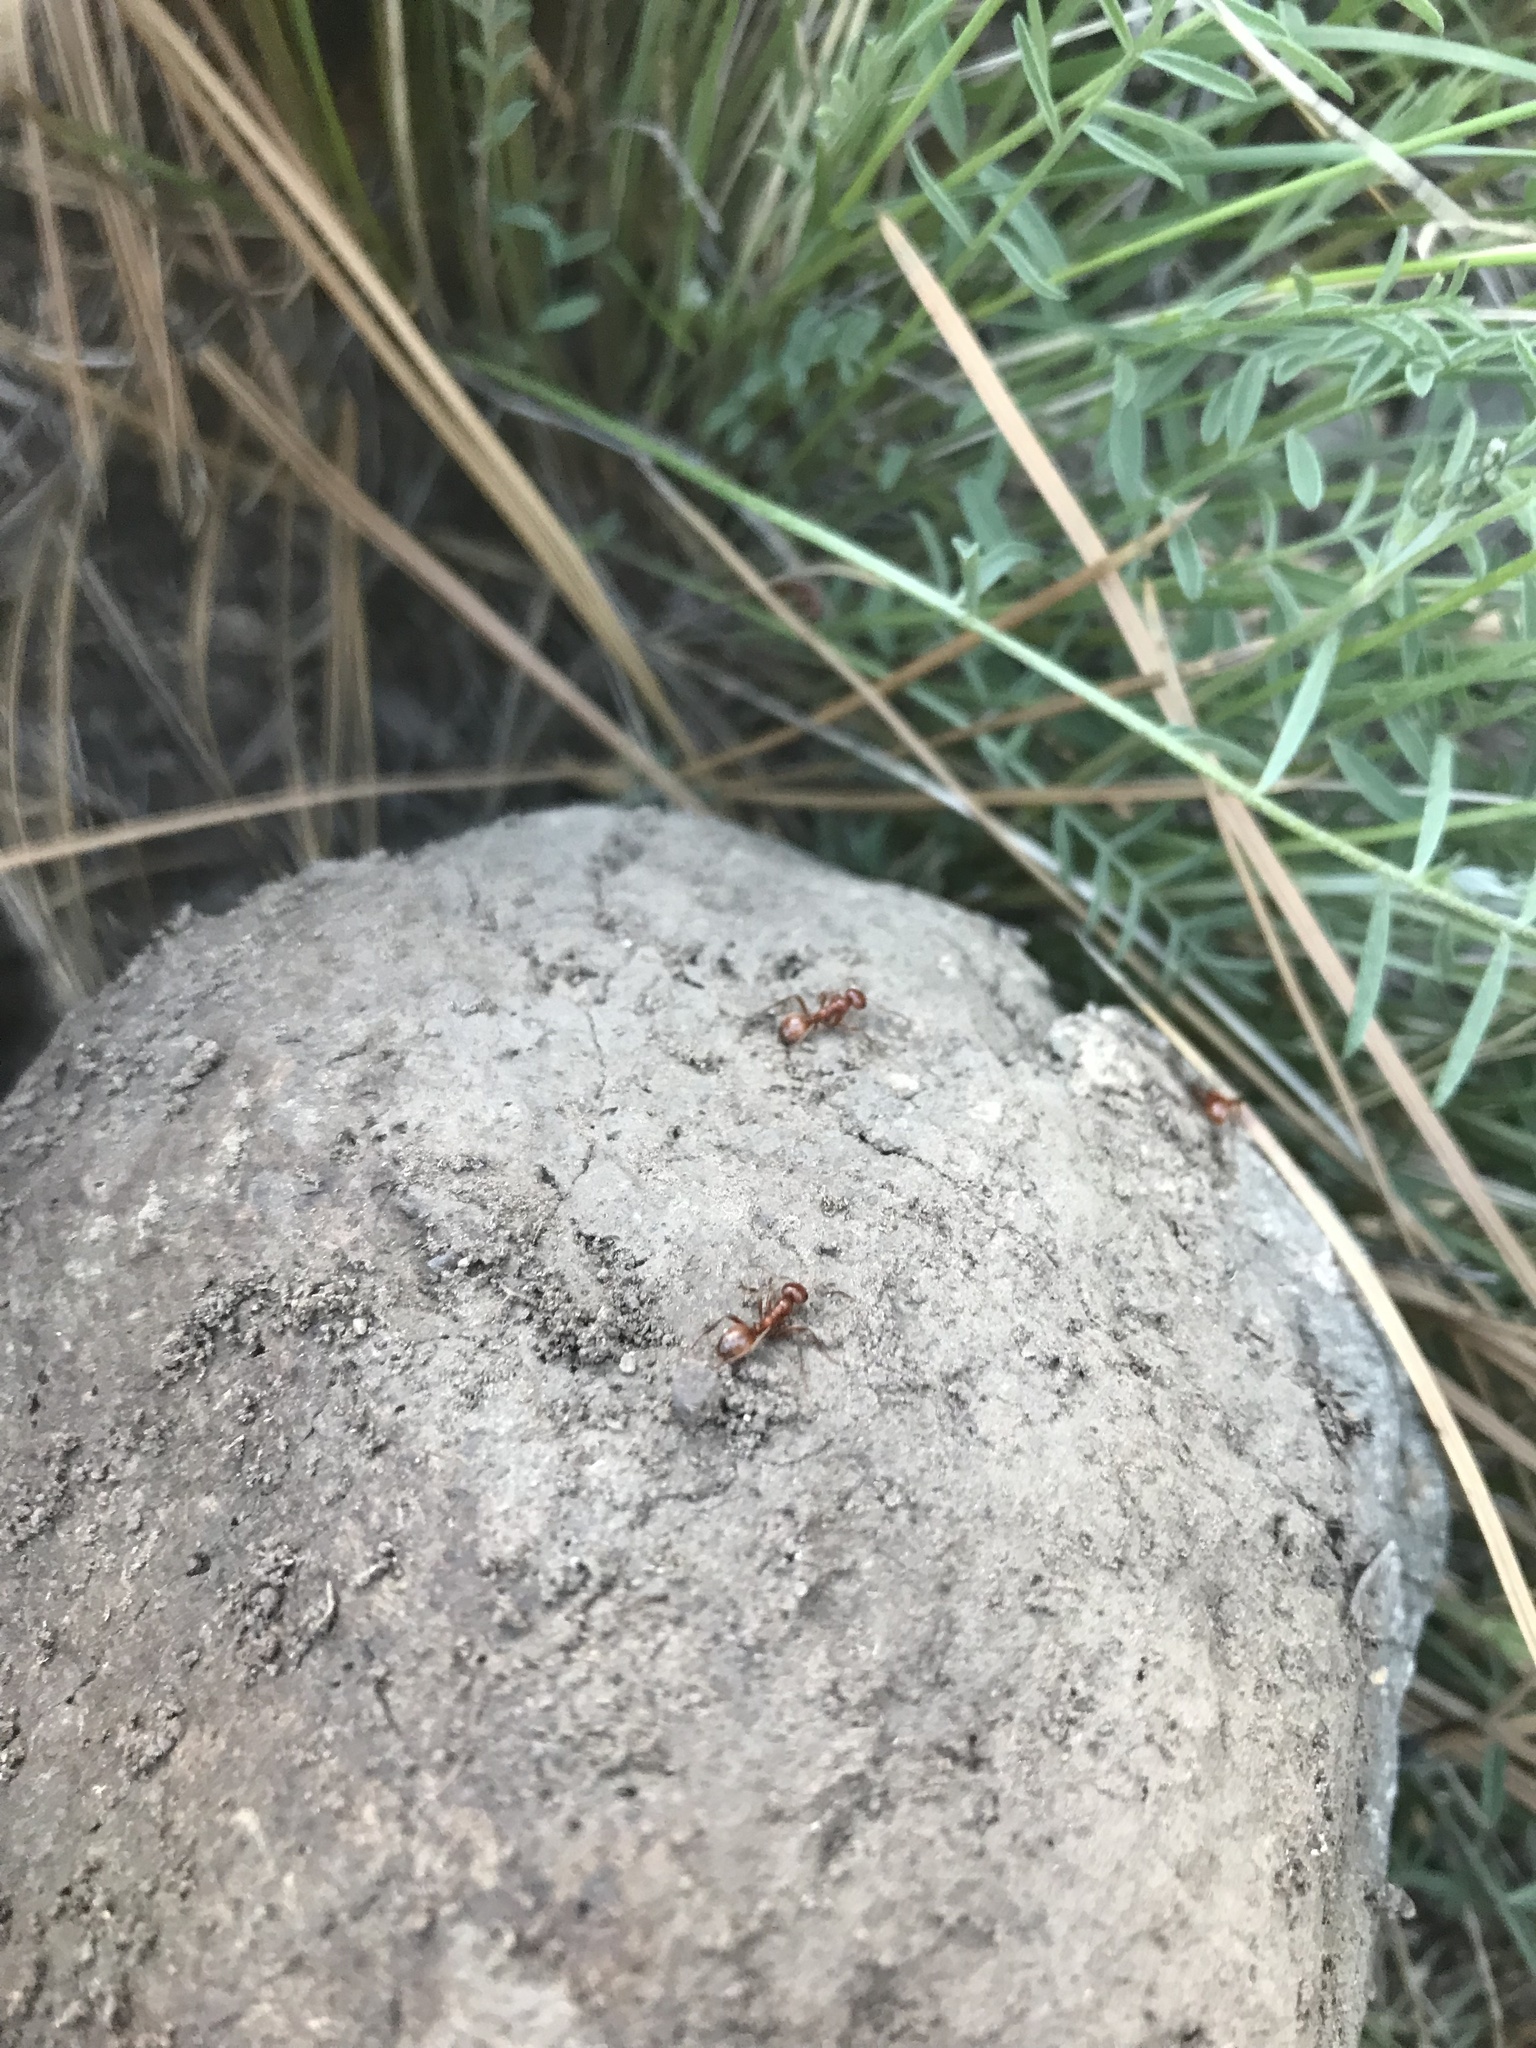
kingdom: Animalia
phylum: Arthropoda
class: Insecta
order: Hymenoptera
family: Formicidae
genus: Polyergus
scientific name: Polyergus mexicanus
